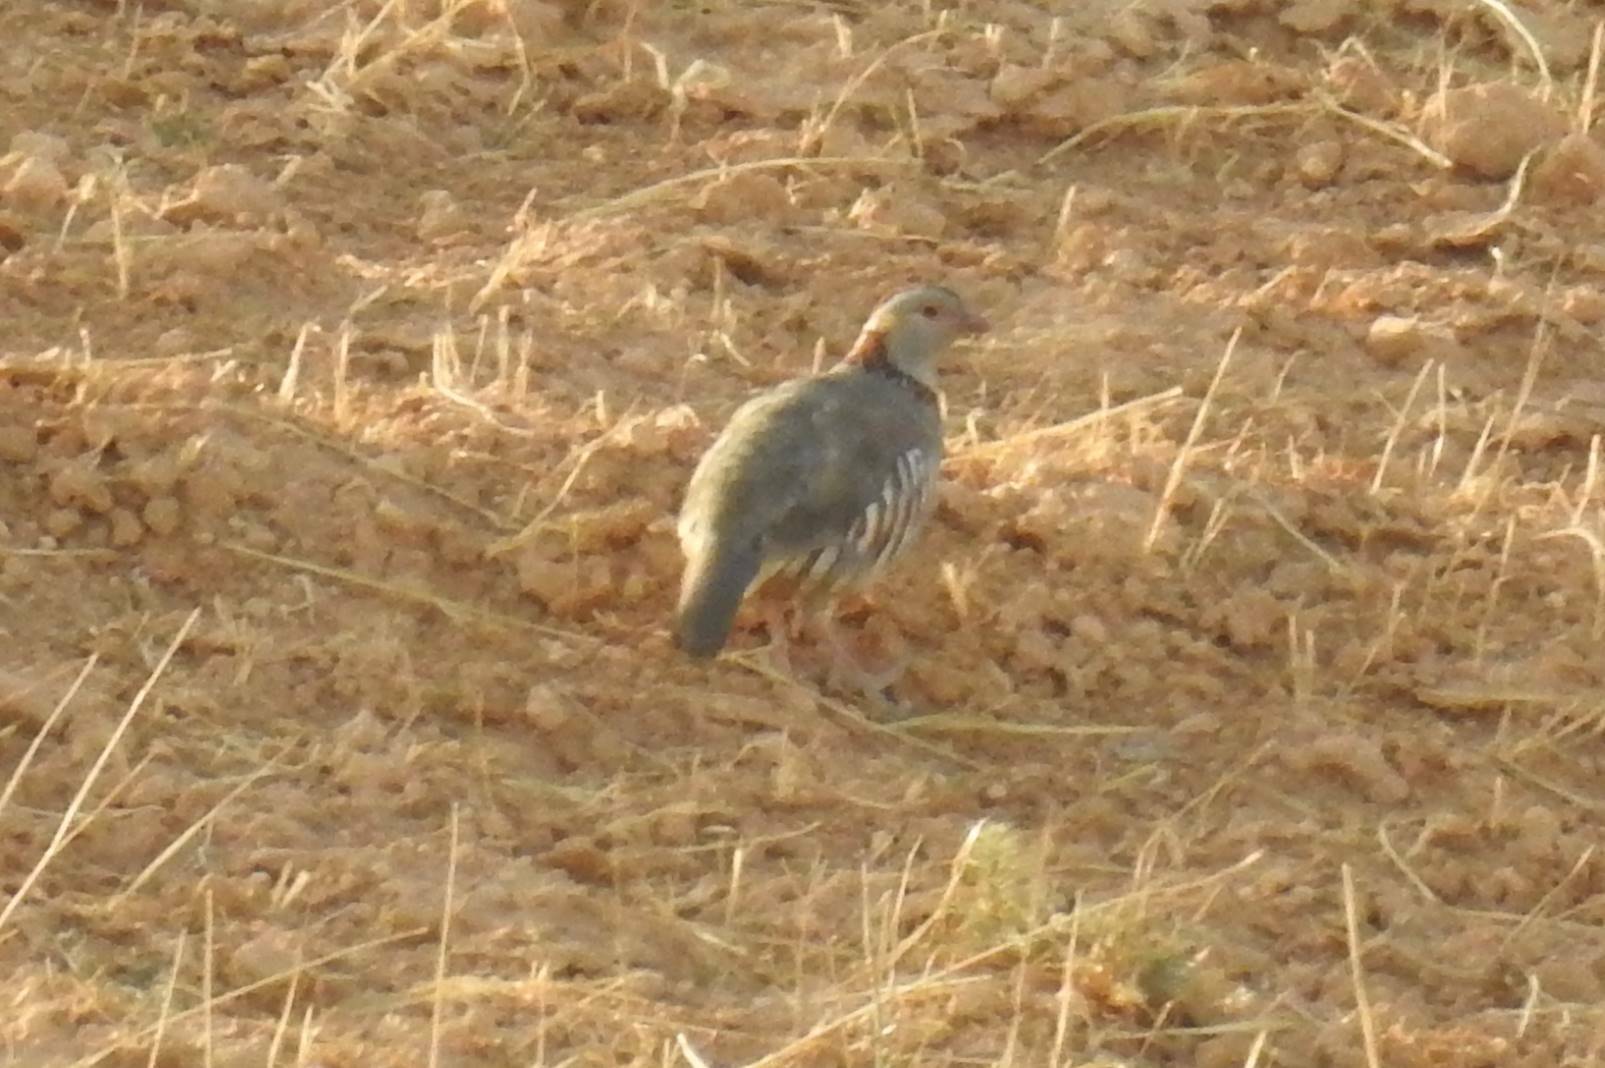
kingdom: Animalia
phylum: Chordata
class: Aves
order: Galliformes
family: Phasianidae
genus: Alectoris
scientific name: Alectoris barbara
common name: Barbary partridge
